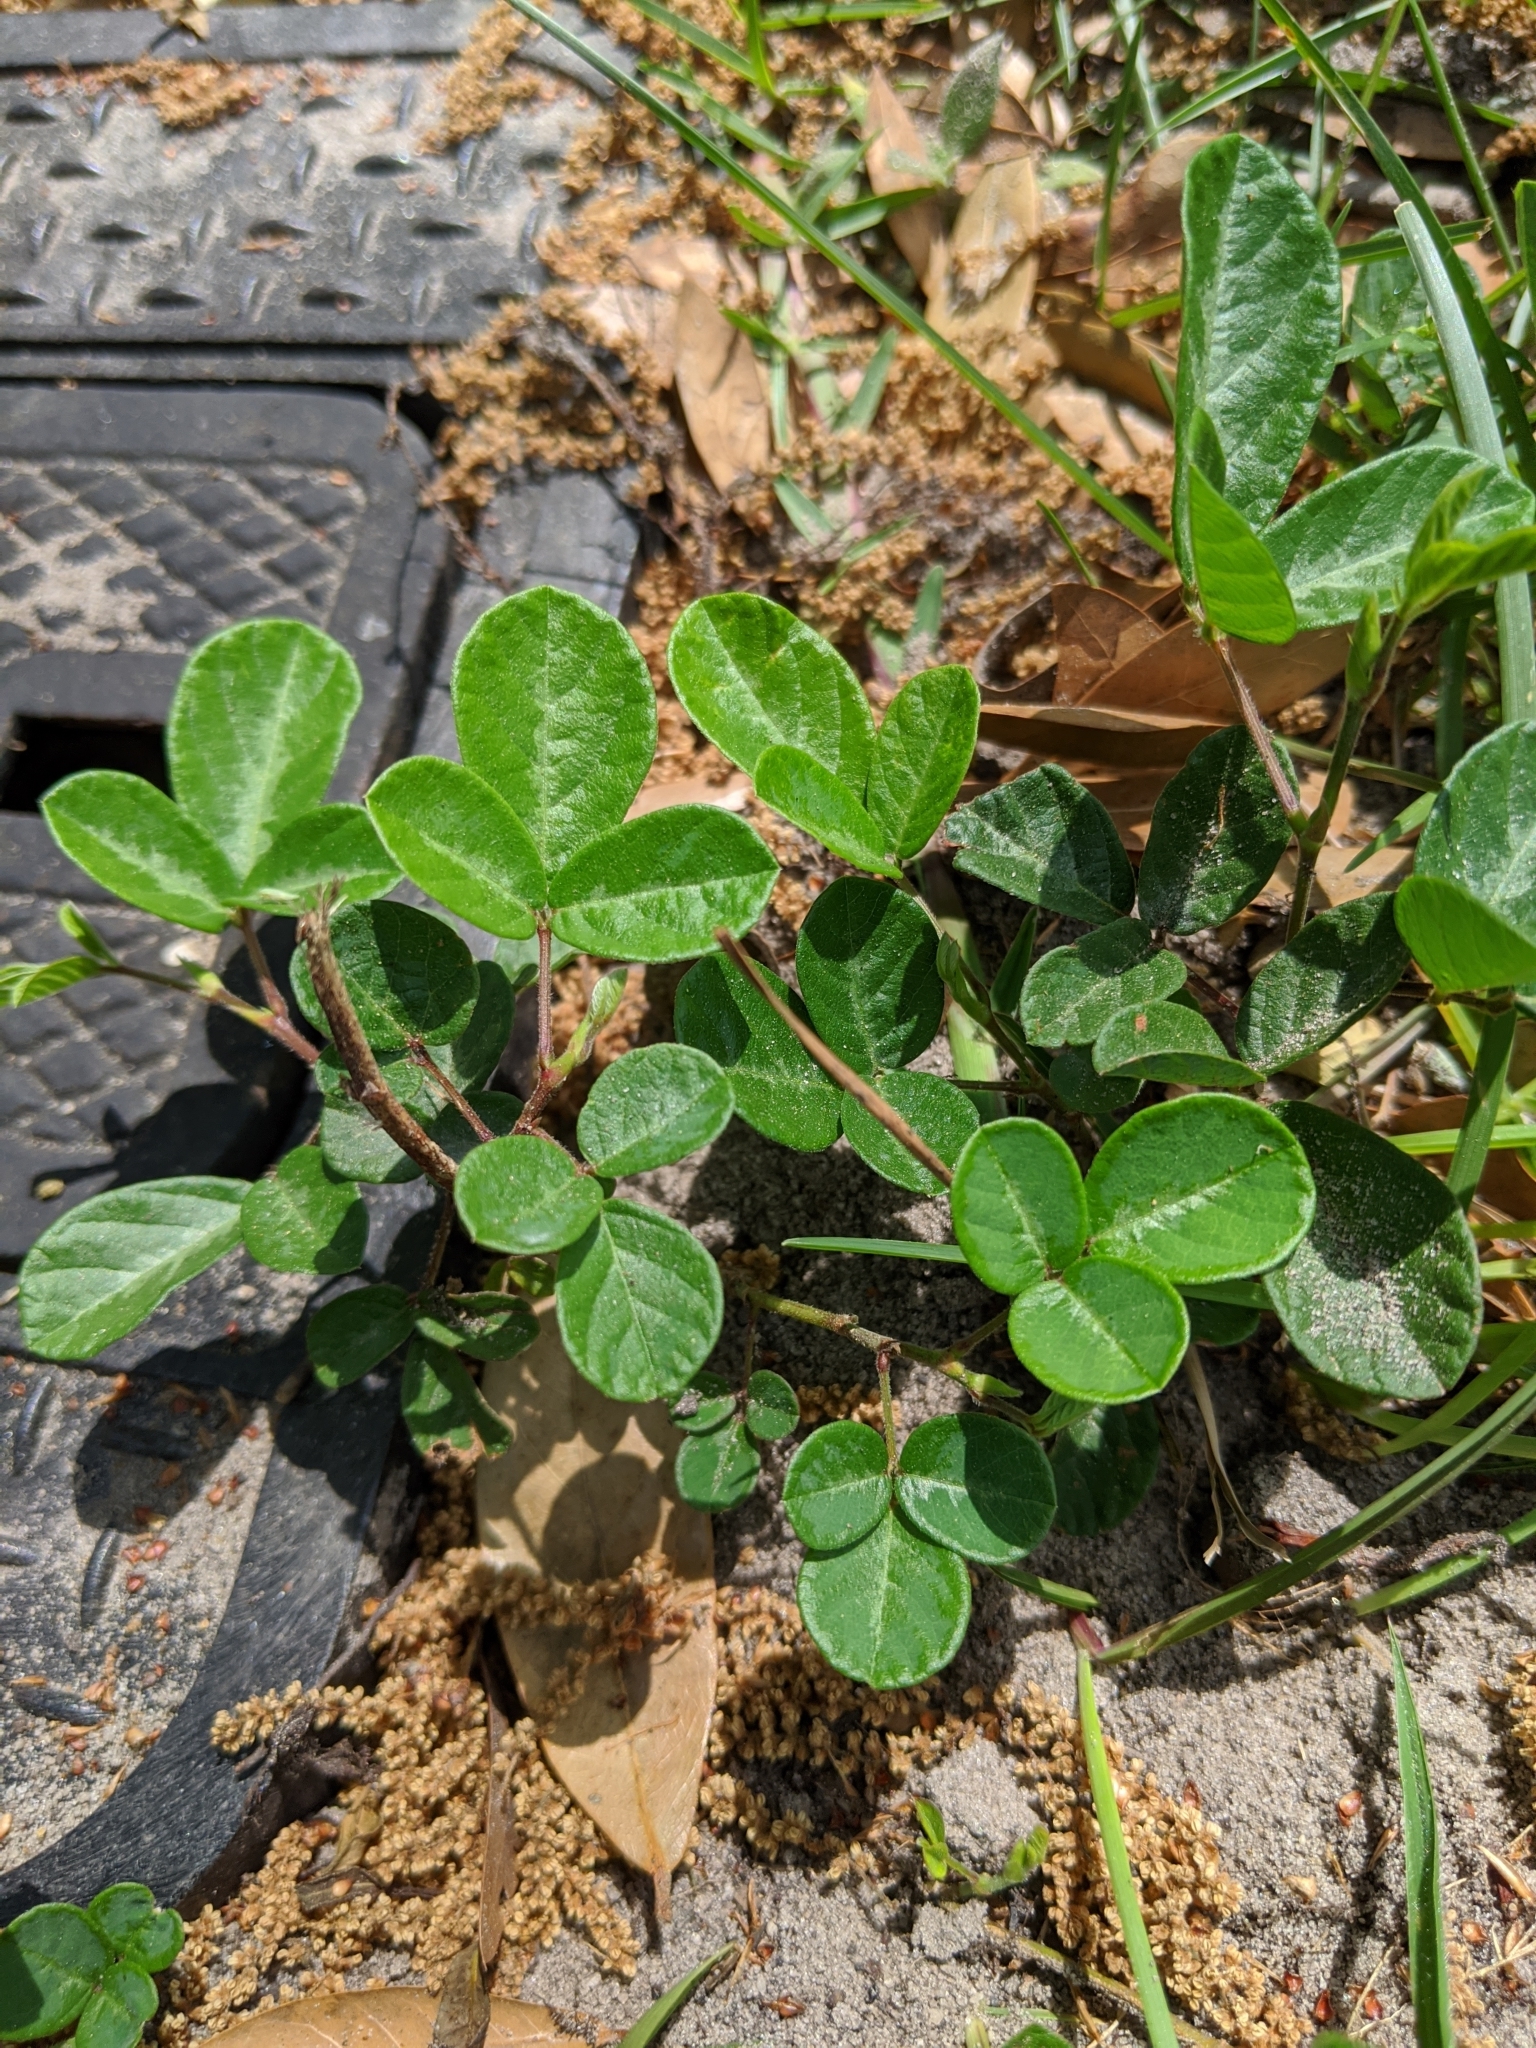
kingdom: Plantae
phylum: Tracheophyta
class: Magnoliopsida
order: Fabales
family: Fabaceae
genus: Desmodium
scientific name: Desmodium incanum
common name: Tickclover
